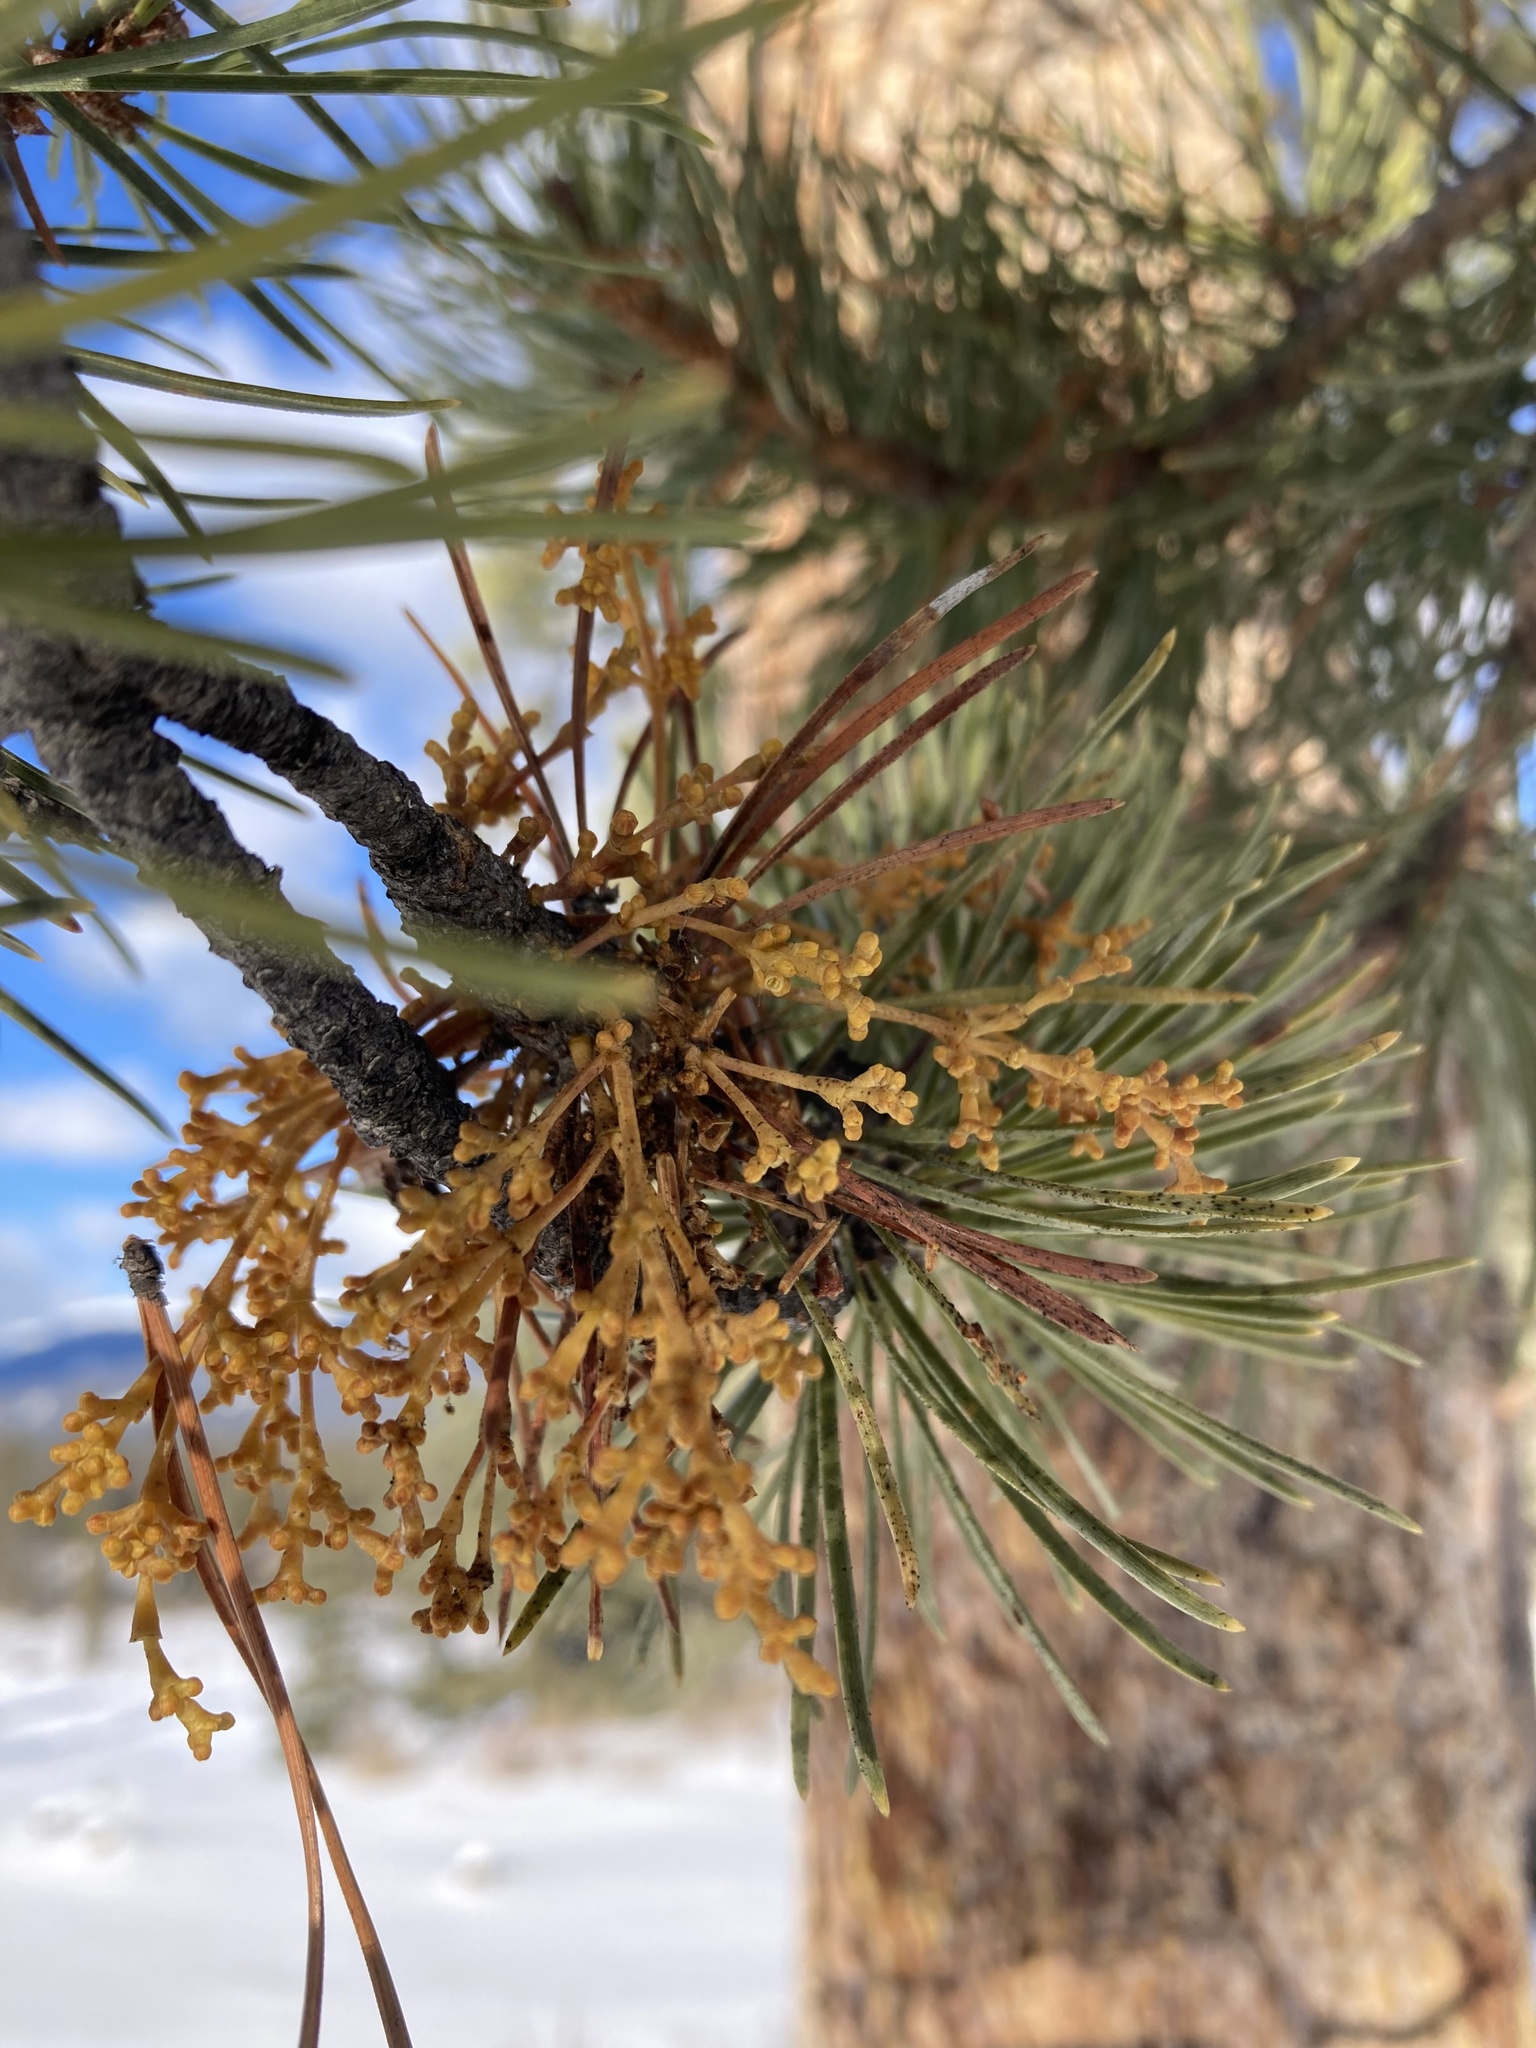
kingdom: Plantae
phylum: Tracheophyta
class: Magnoliopsida
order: Santalales
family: Viscaceae
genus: Arceuthobium
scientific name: Arceuthobium americanum
